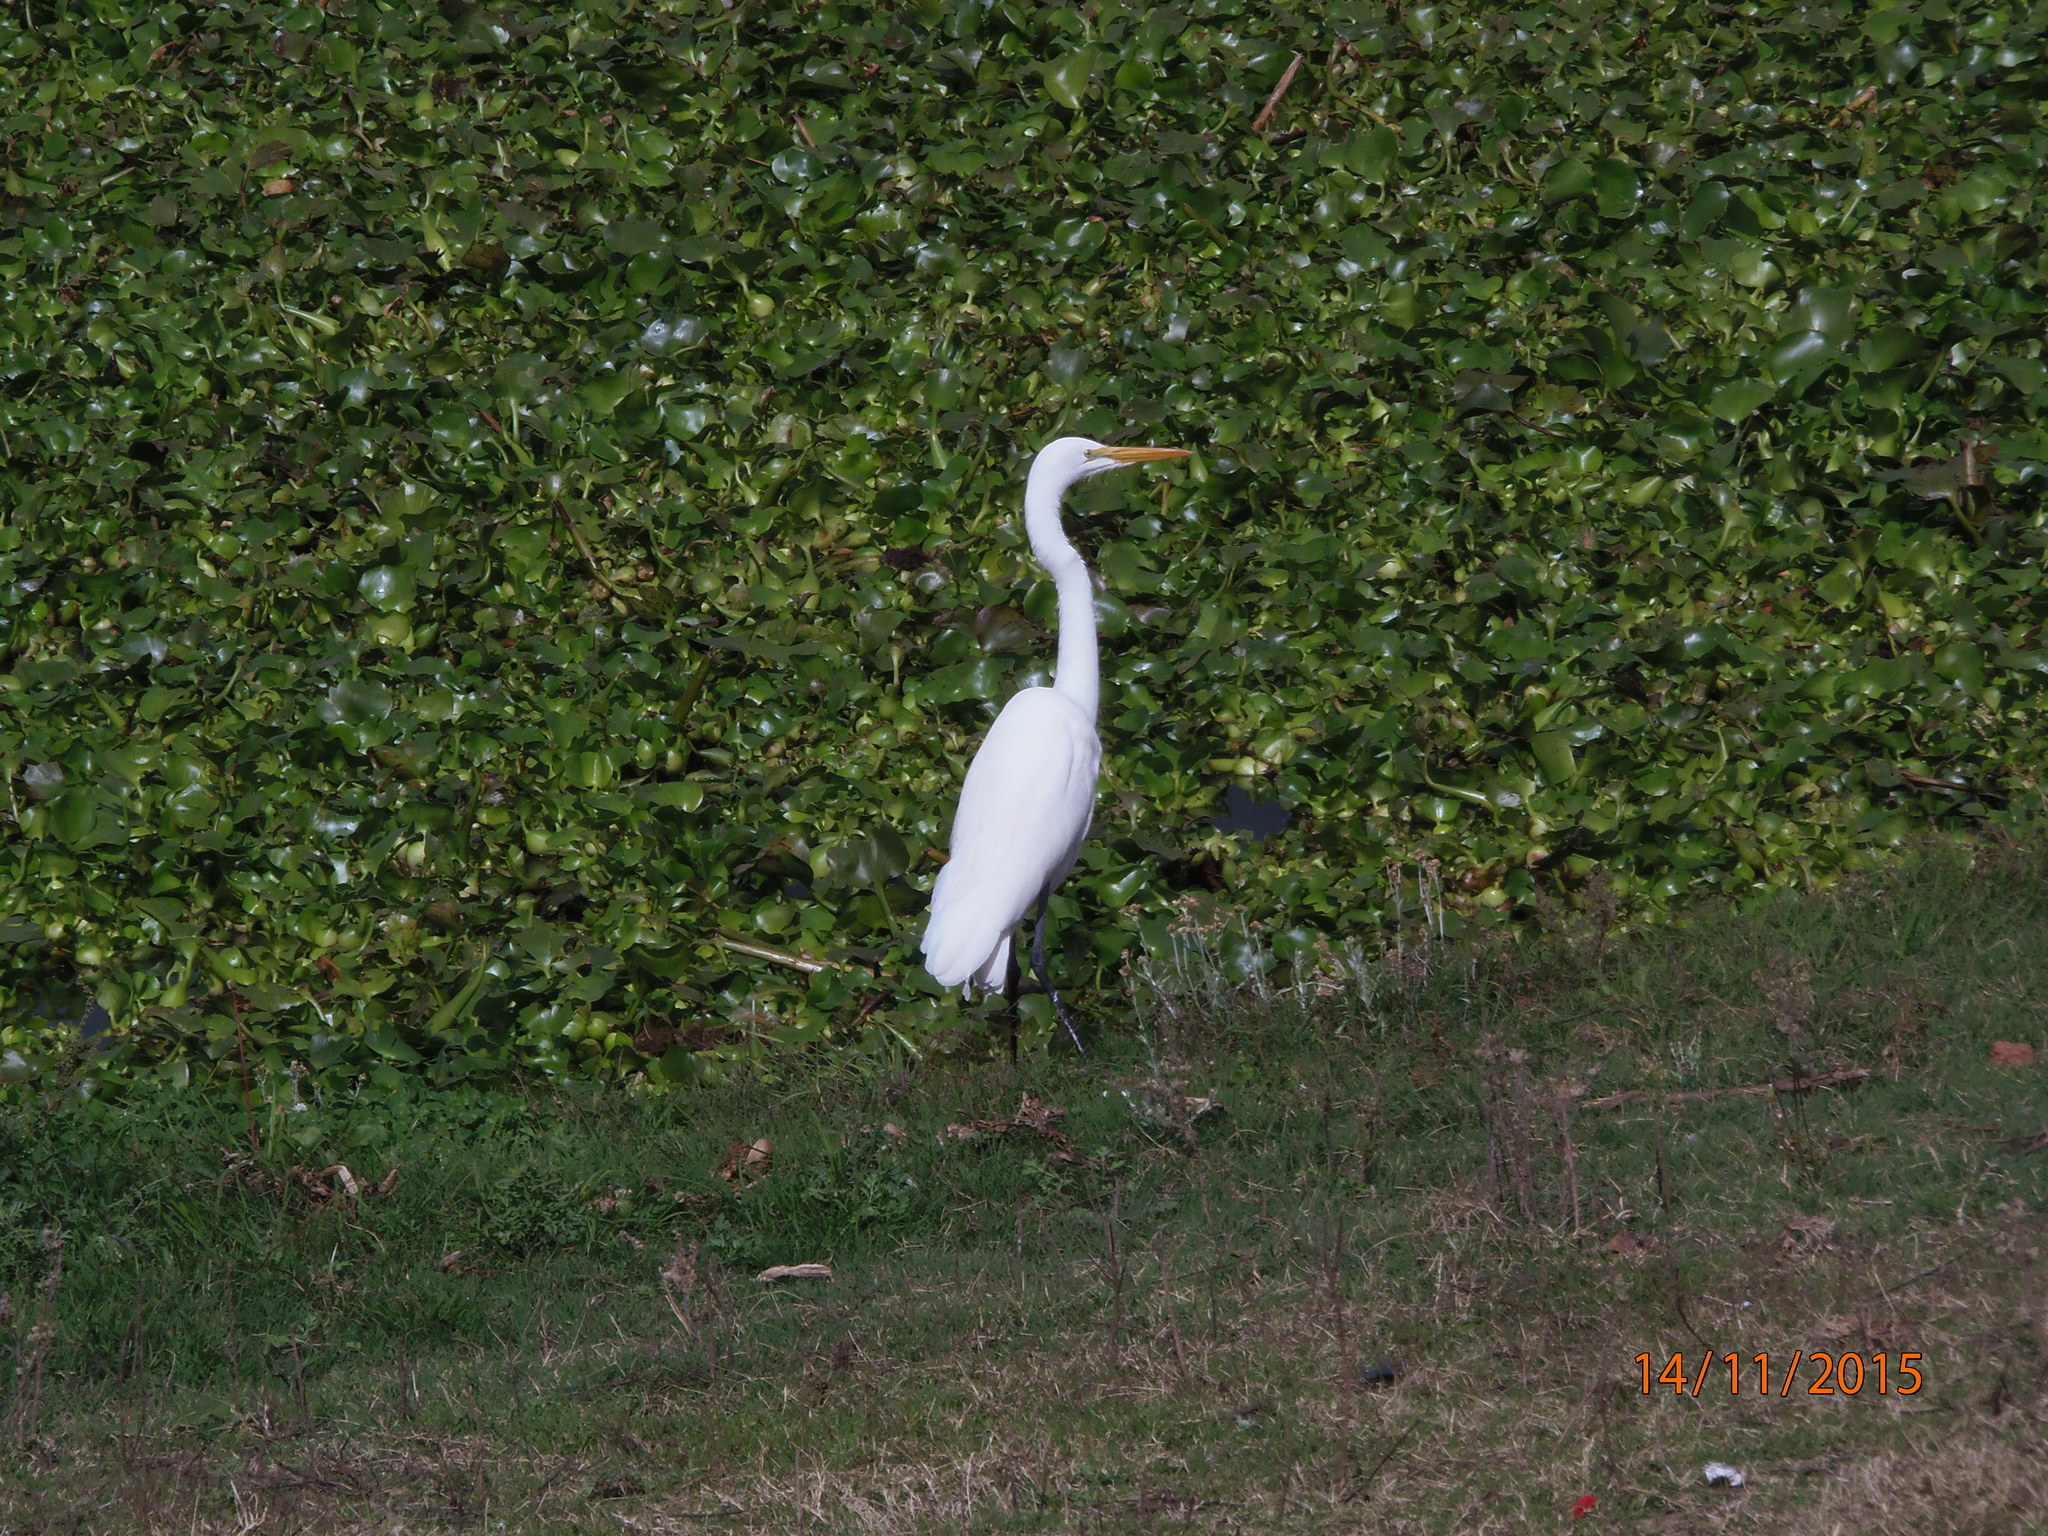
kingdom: Animalia
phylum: Chordata
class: Aves
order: Pelecaniformes
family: Ardeidae
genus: Ardea
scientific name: Ardea alba
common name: Great egret
